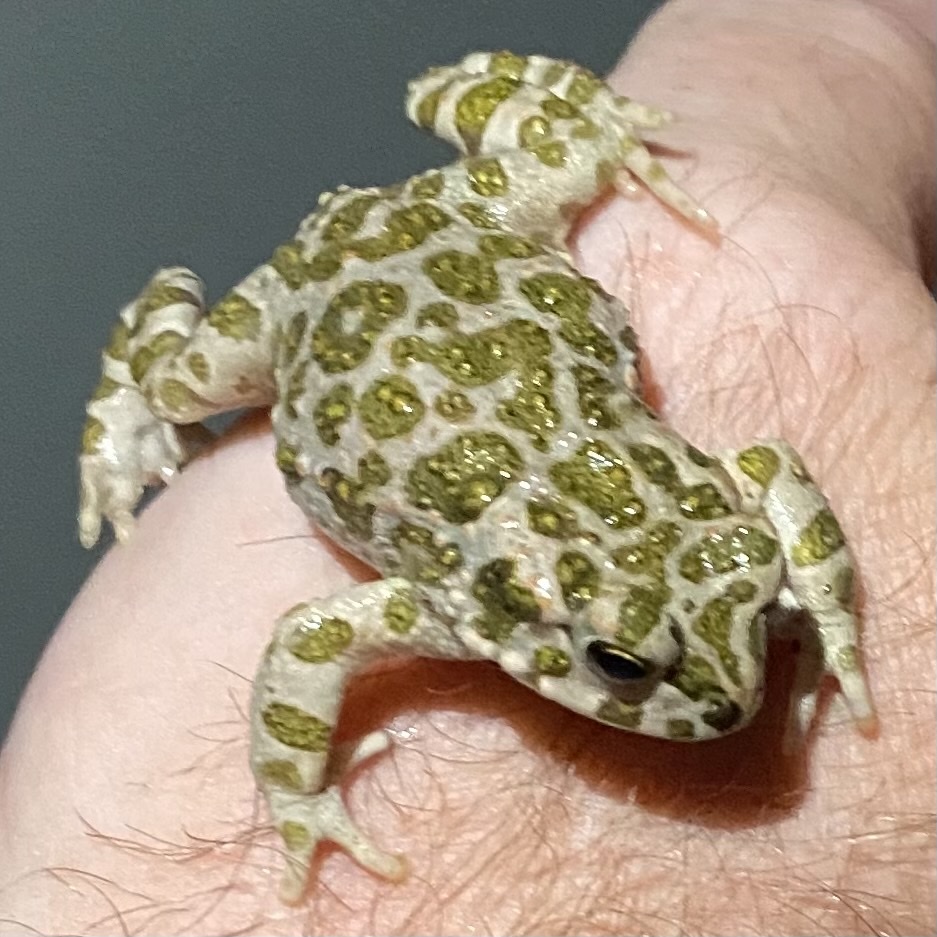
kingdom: Animalia
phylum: Chordata
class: Amphibia
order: Anura
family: Bufonidae
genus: Bufotes
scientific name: Bufotes viridis
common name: European green toad
